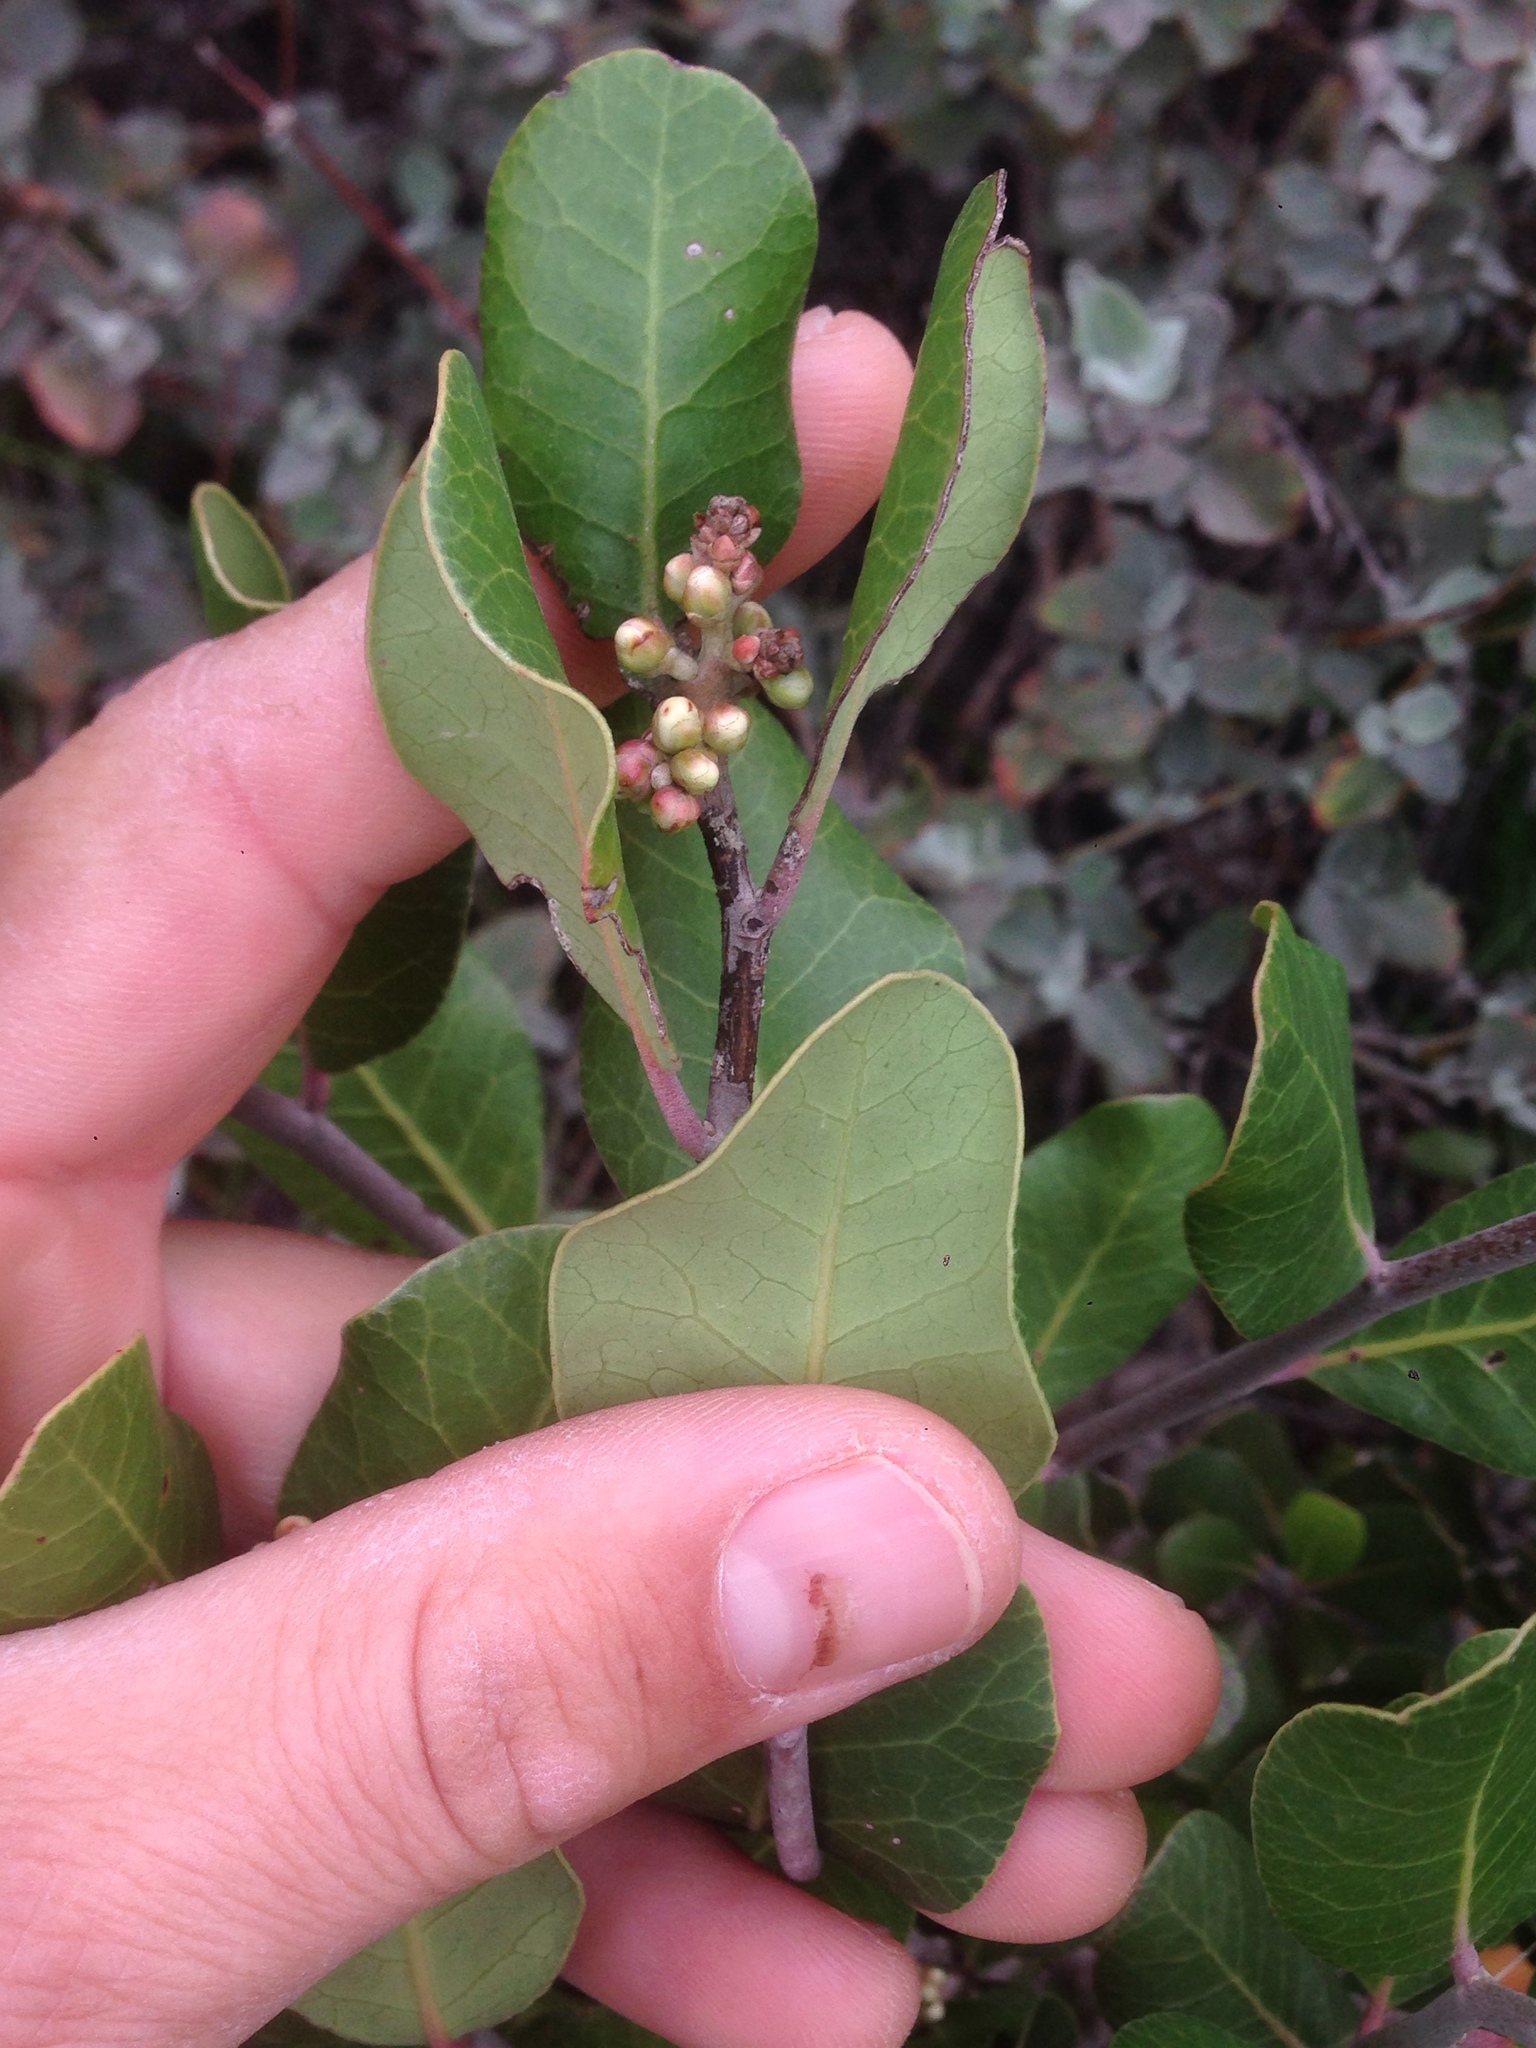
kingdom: Plantae
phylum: Tracheophyta
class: Magnoliopsida
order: Sapindales
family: Anacardiaceae
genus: Rhus
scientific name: Rhus integrifolia
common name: Lemonade sumac
